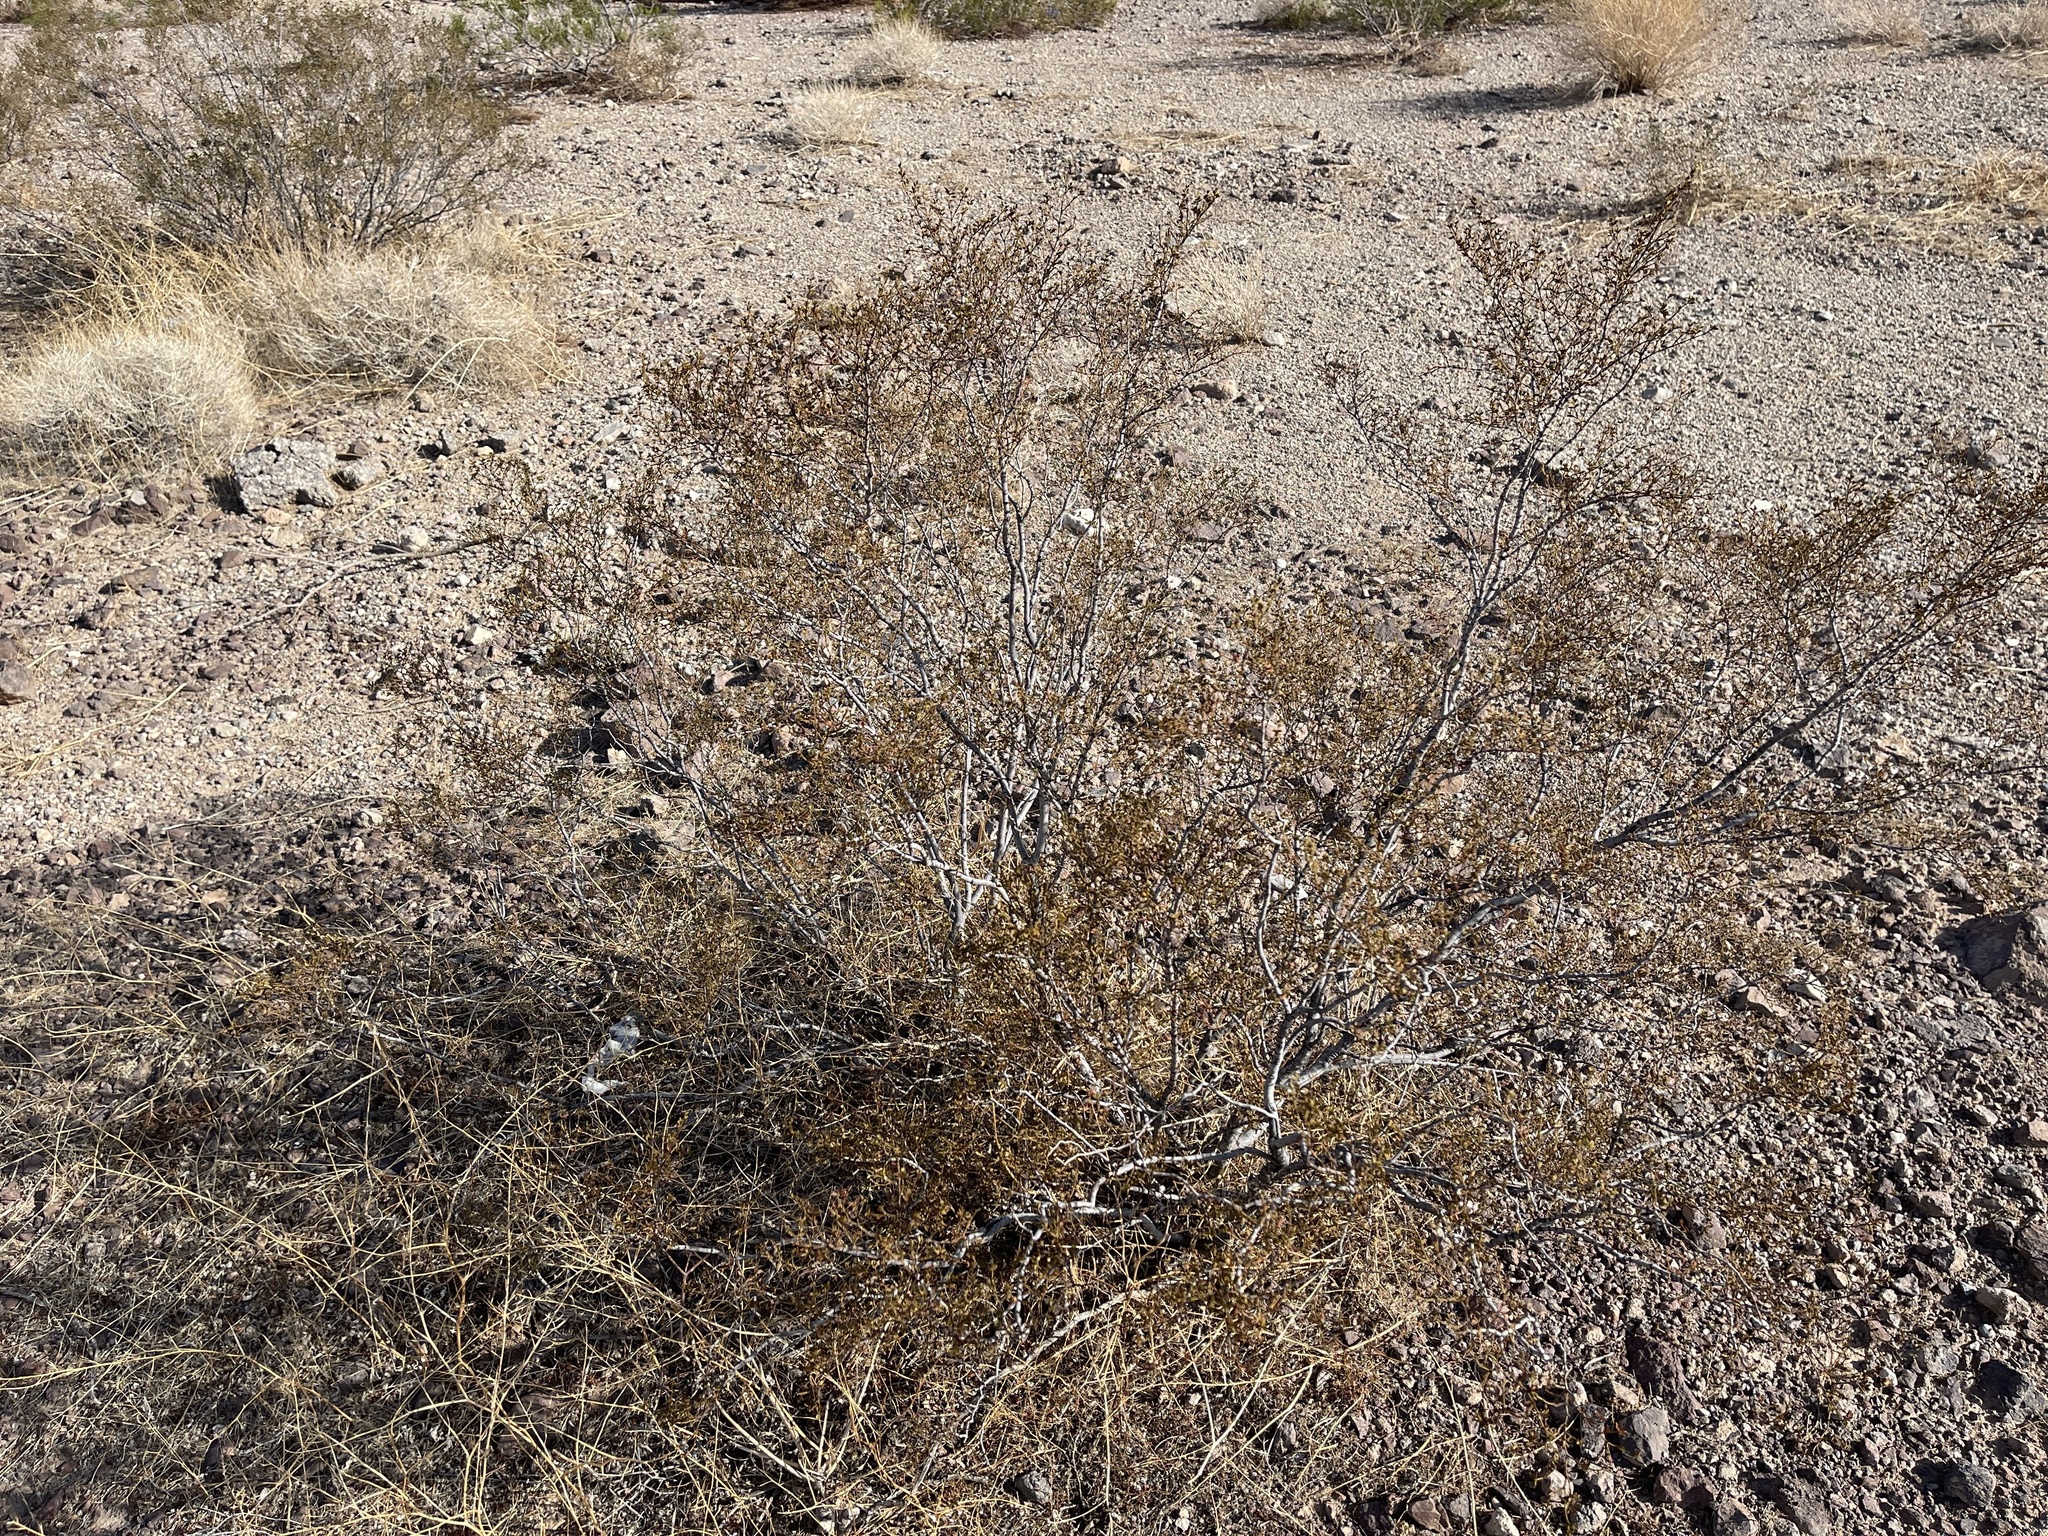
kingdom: Plantae
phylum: Tracheophyta
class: Magnoliopsida
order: Zygophyllales
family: Zygophyllaceae
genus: Larrea
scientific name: Larrea tridentata
